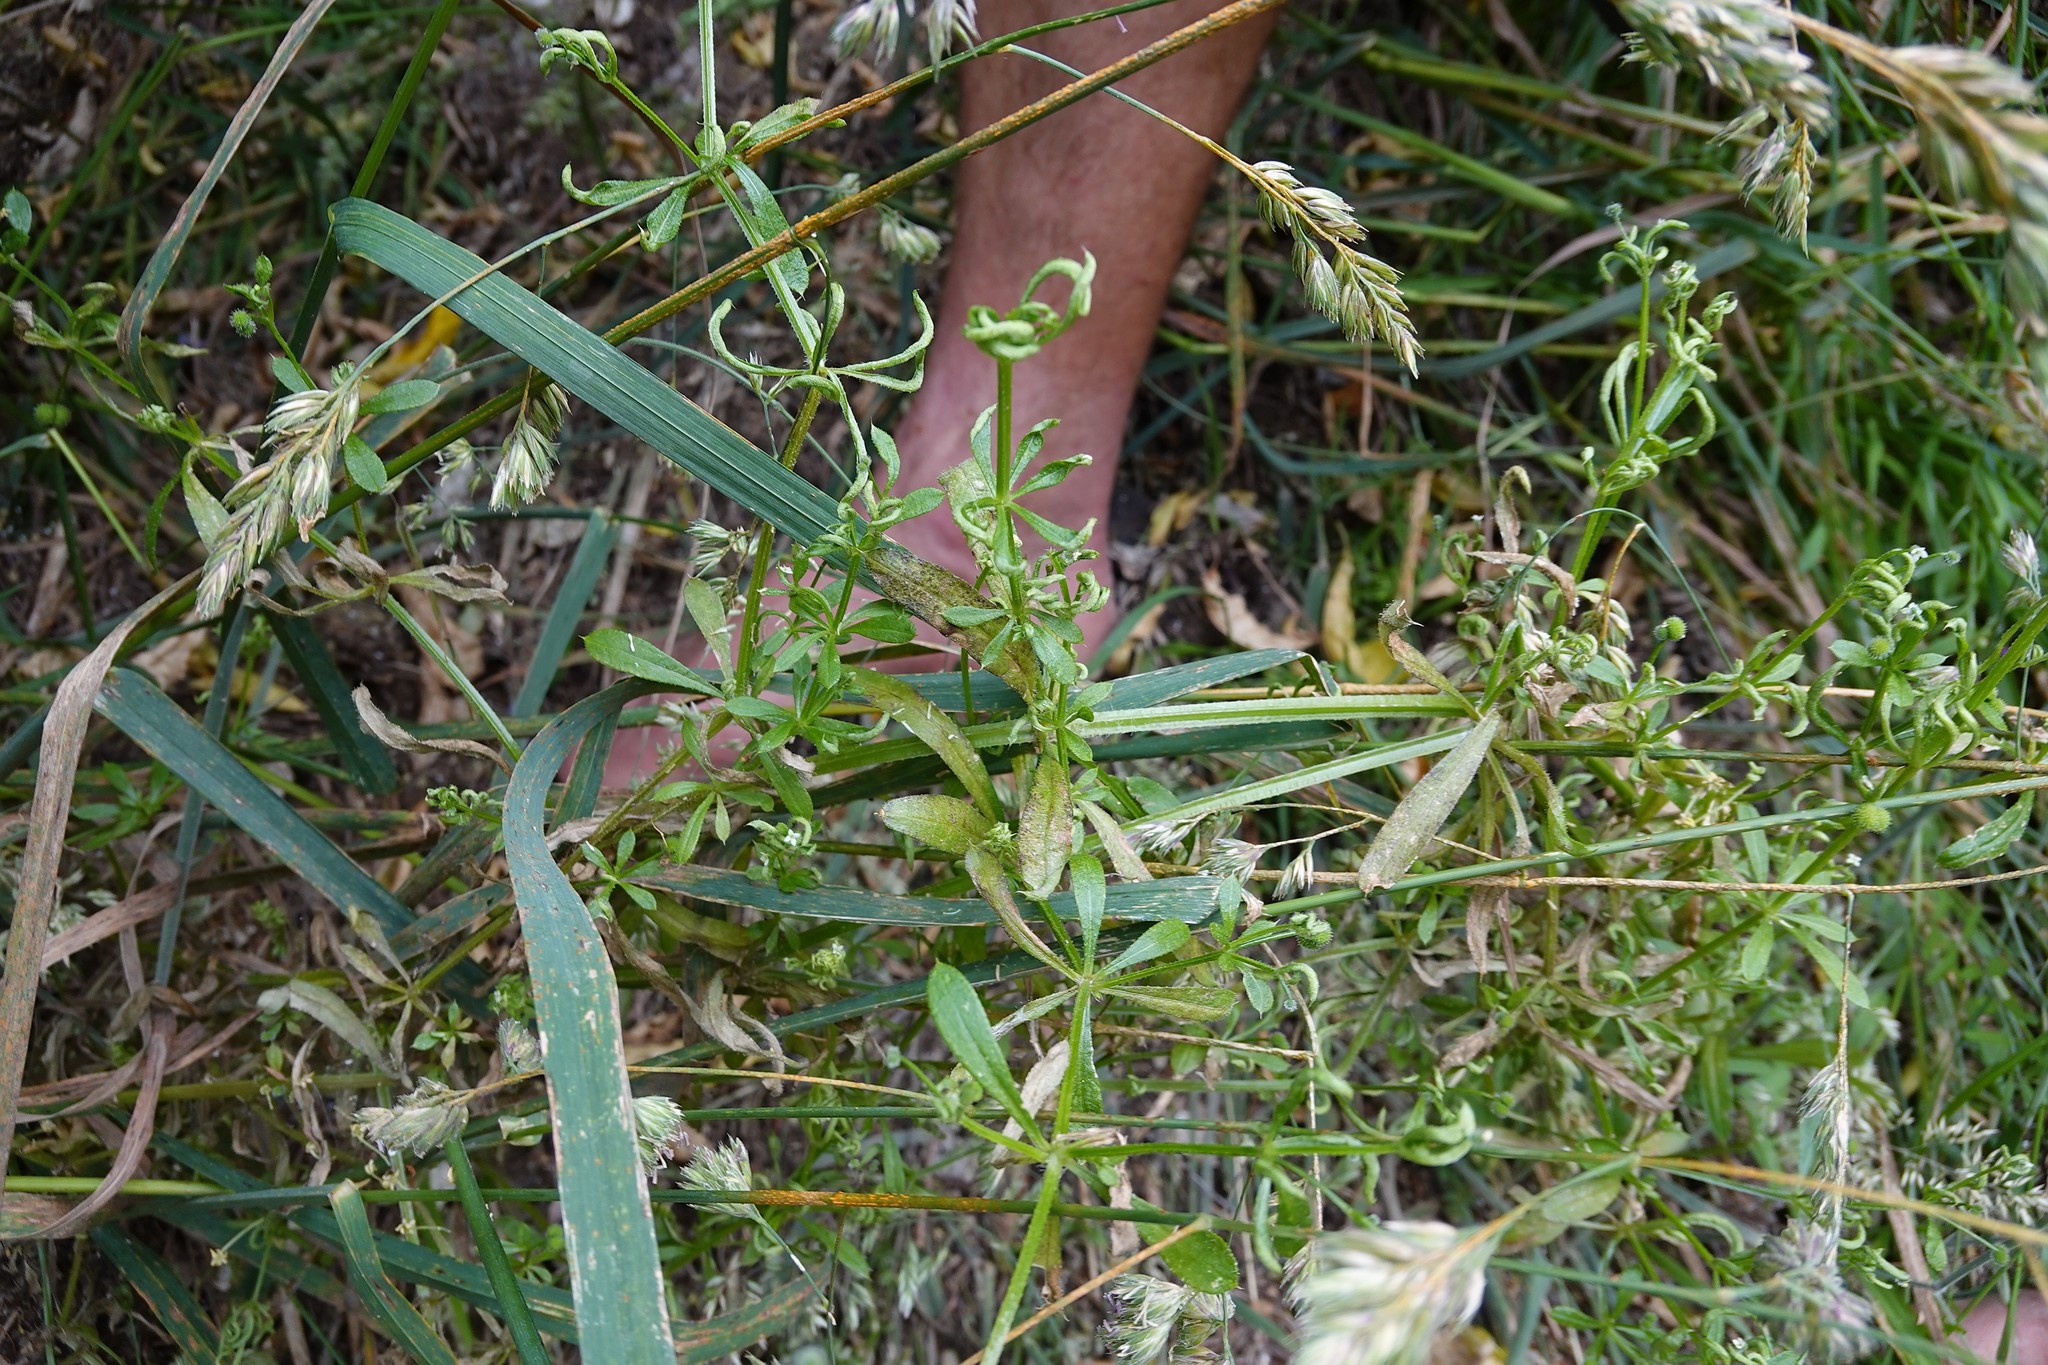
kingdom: Animalia
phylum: Arthropoda
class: Arachnida
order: Trombidiformes
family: Eriophyidae
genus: Cecidophyes
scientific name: Cecidophyes rouhollahi
